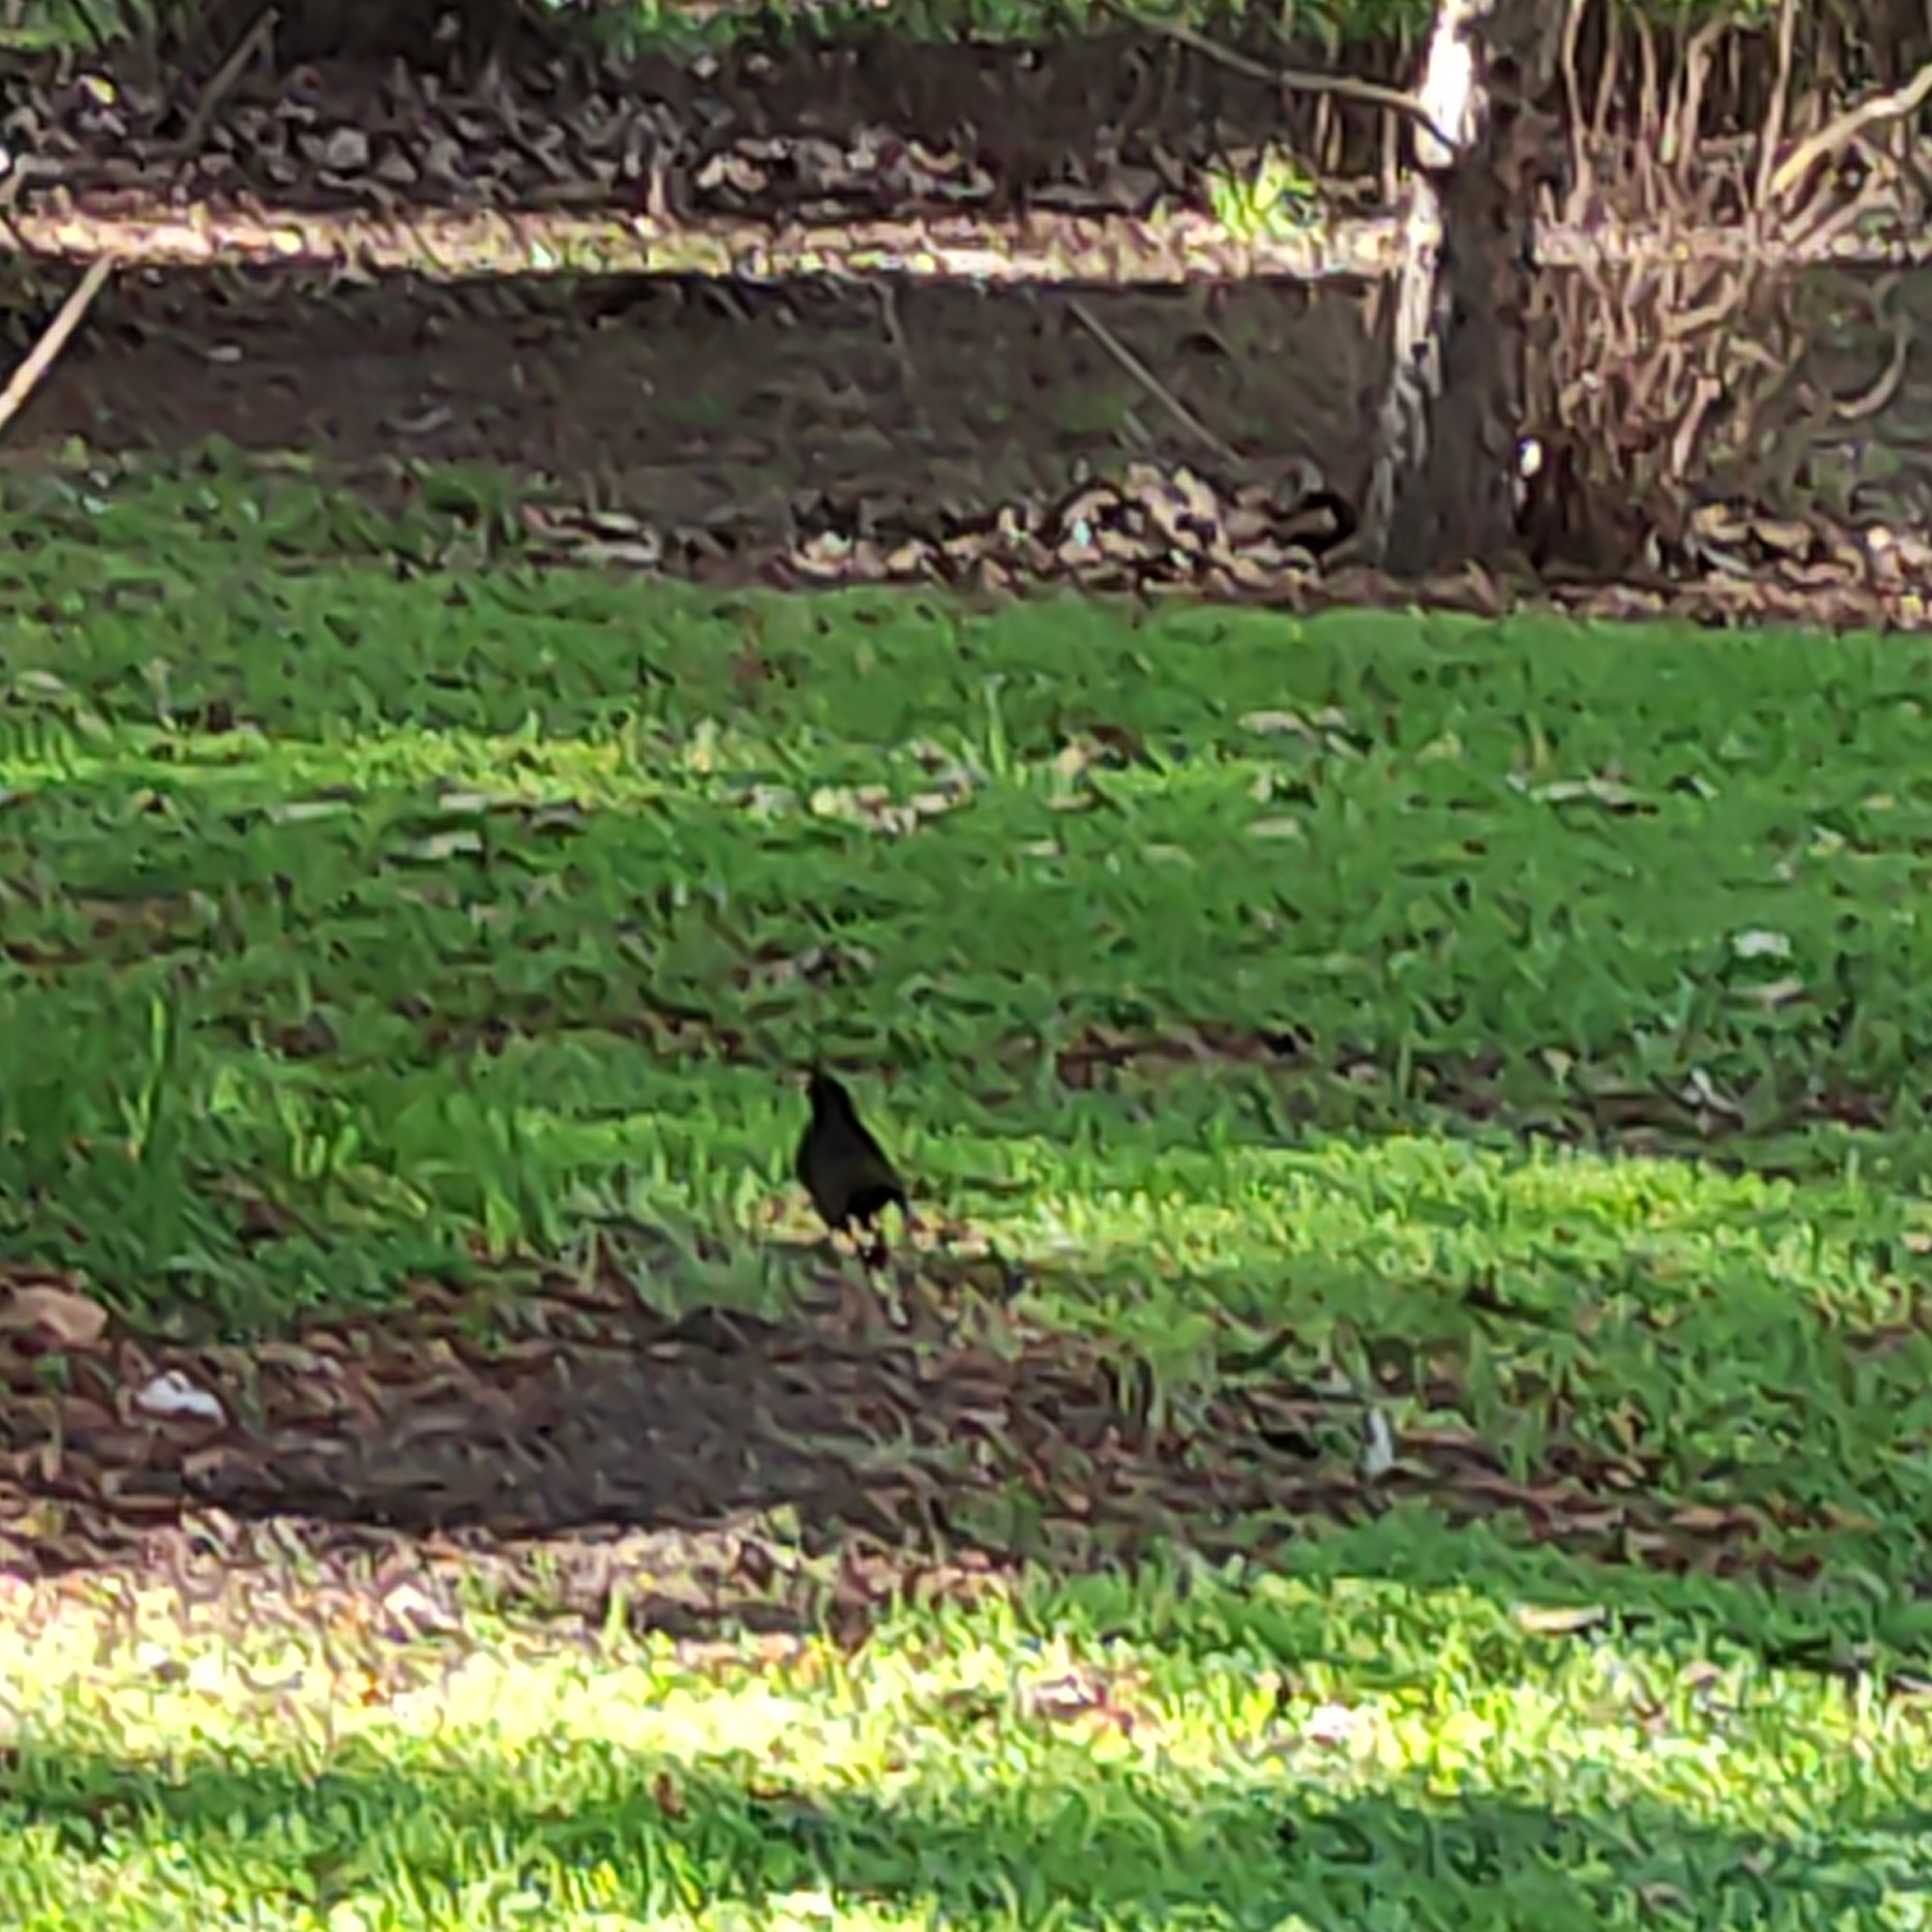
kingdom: Animalia
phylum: Chordata
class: Aves
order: Passeriformes
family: Turdidae
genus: Turdus
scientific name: Turdus merula
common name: Common blackbird
